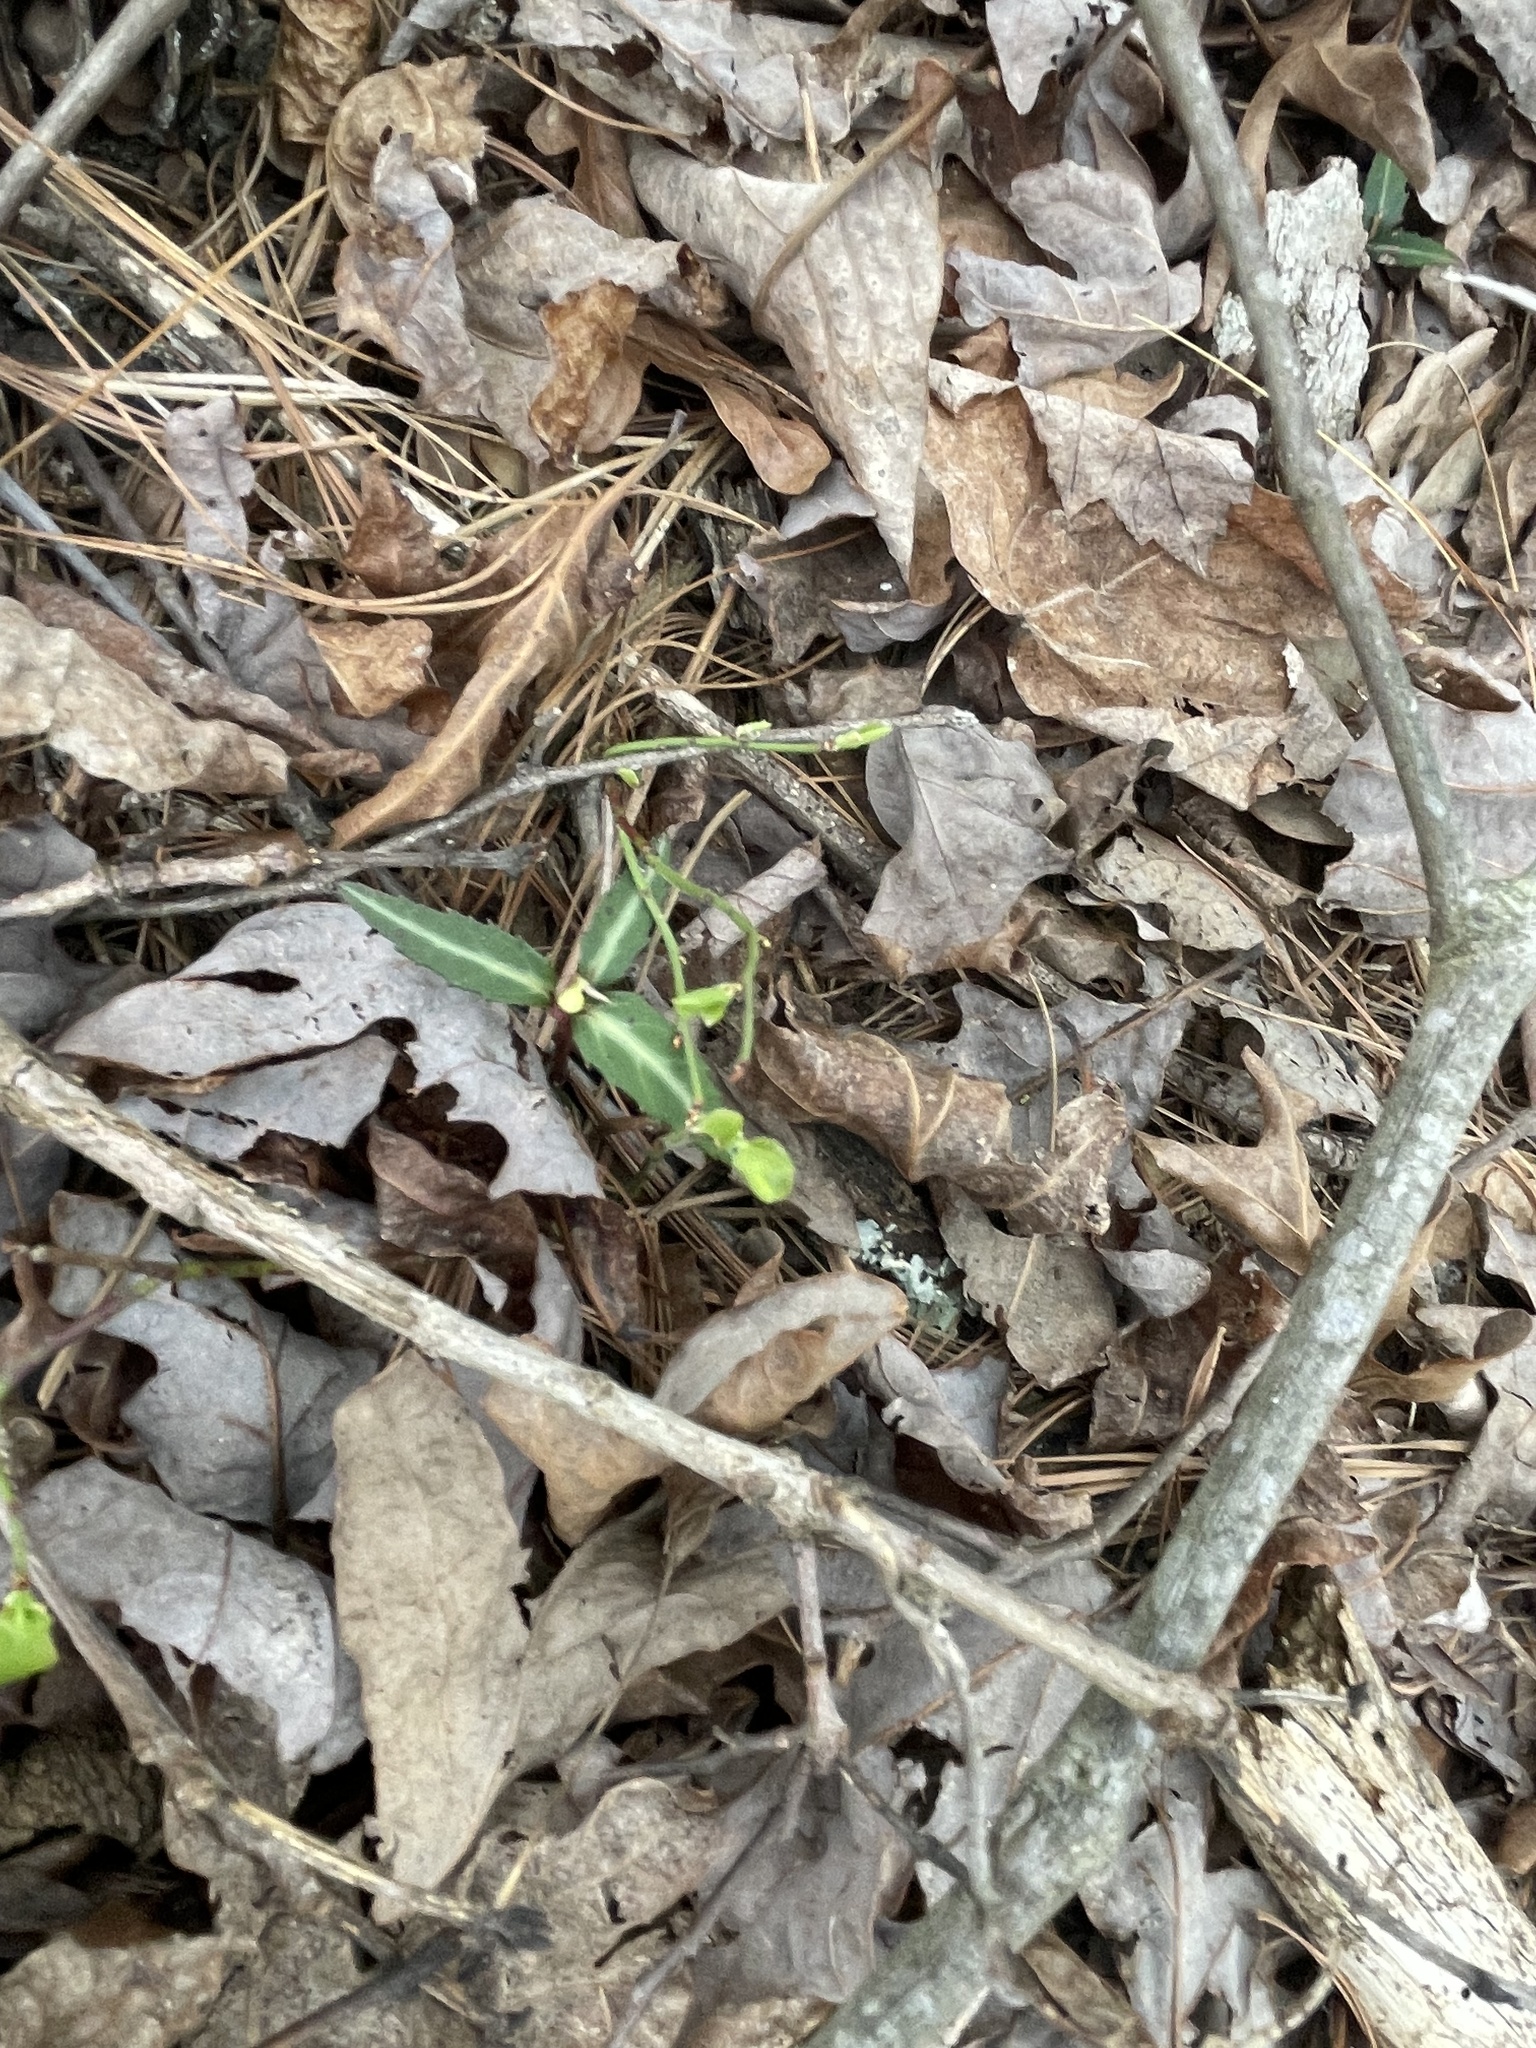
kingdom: Plantae
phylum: Tracheophyta
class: Magnoliopsida
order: Ericales
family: Ericaceae
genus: Chimaphila
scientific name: Chimaphila maculata
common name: Spotted pipsissewa
